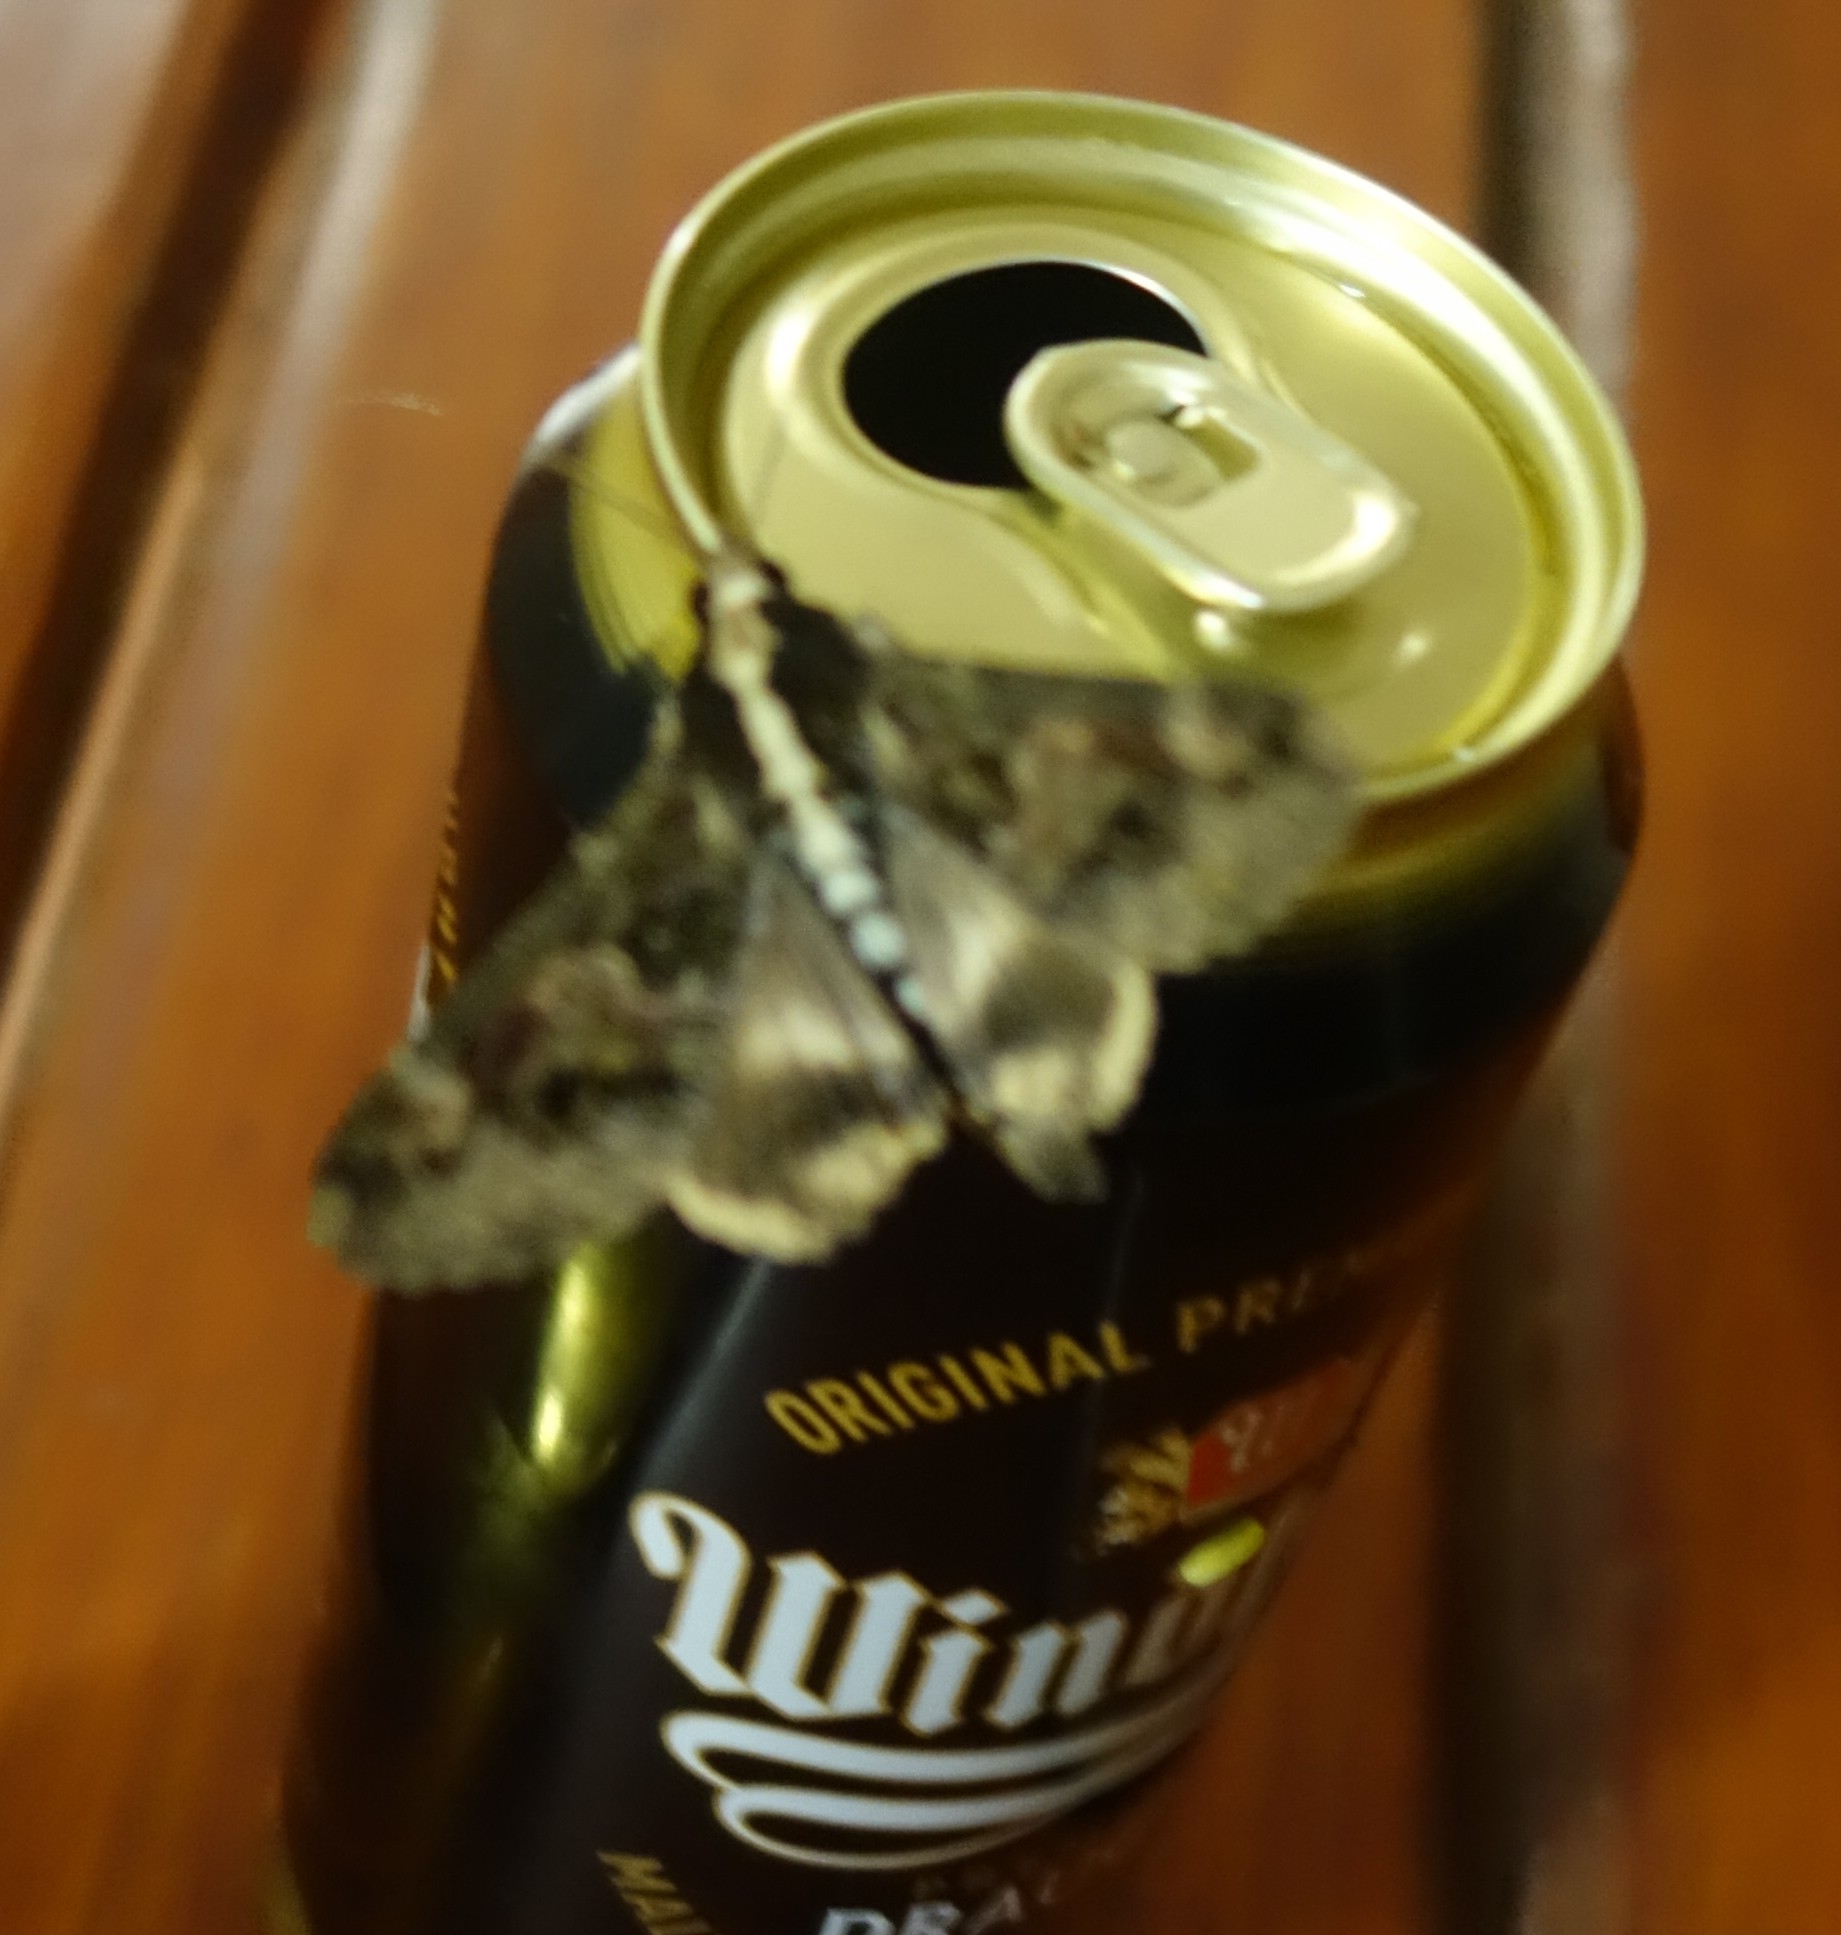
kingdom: Animalia
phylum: Arthropoda
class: Insecta
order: Lepidoptera
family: Erebidae
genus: Sphingomorpha
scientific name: Sphingomorpha chlorea
